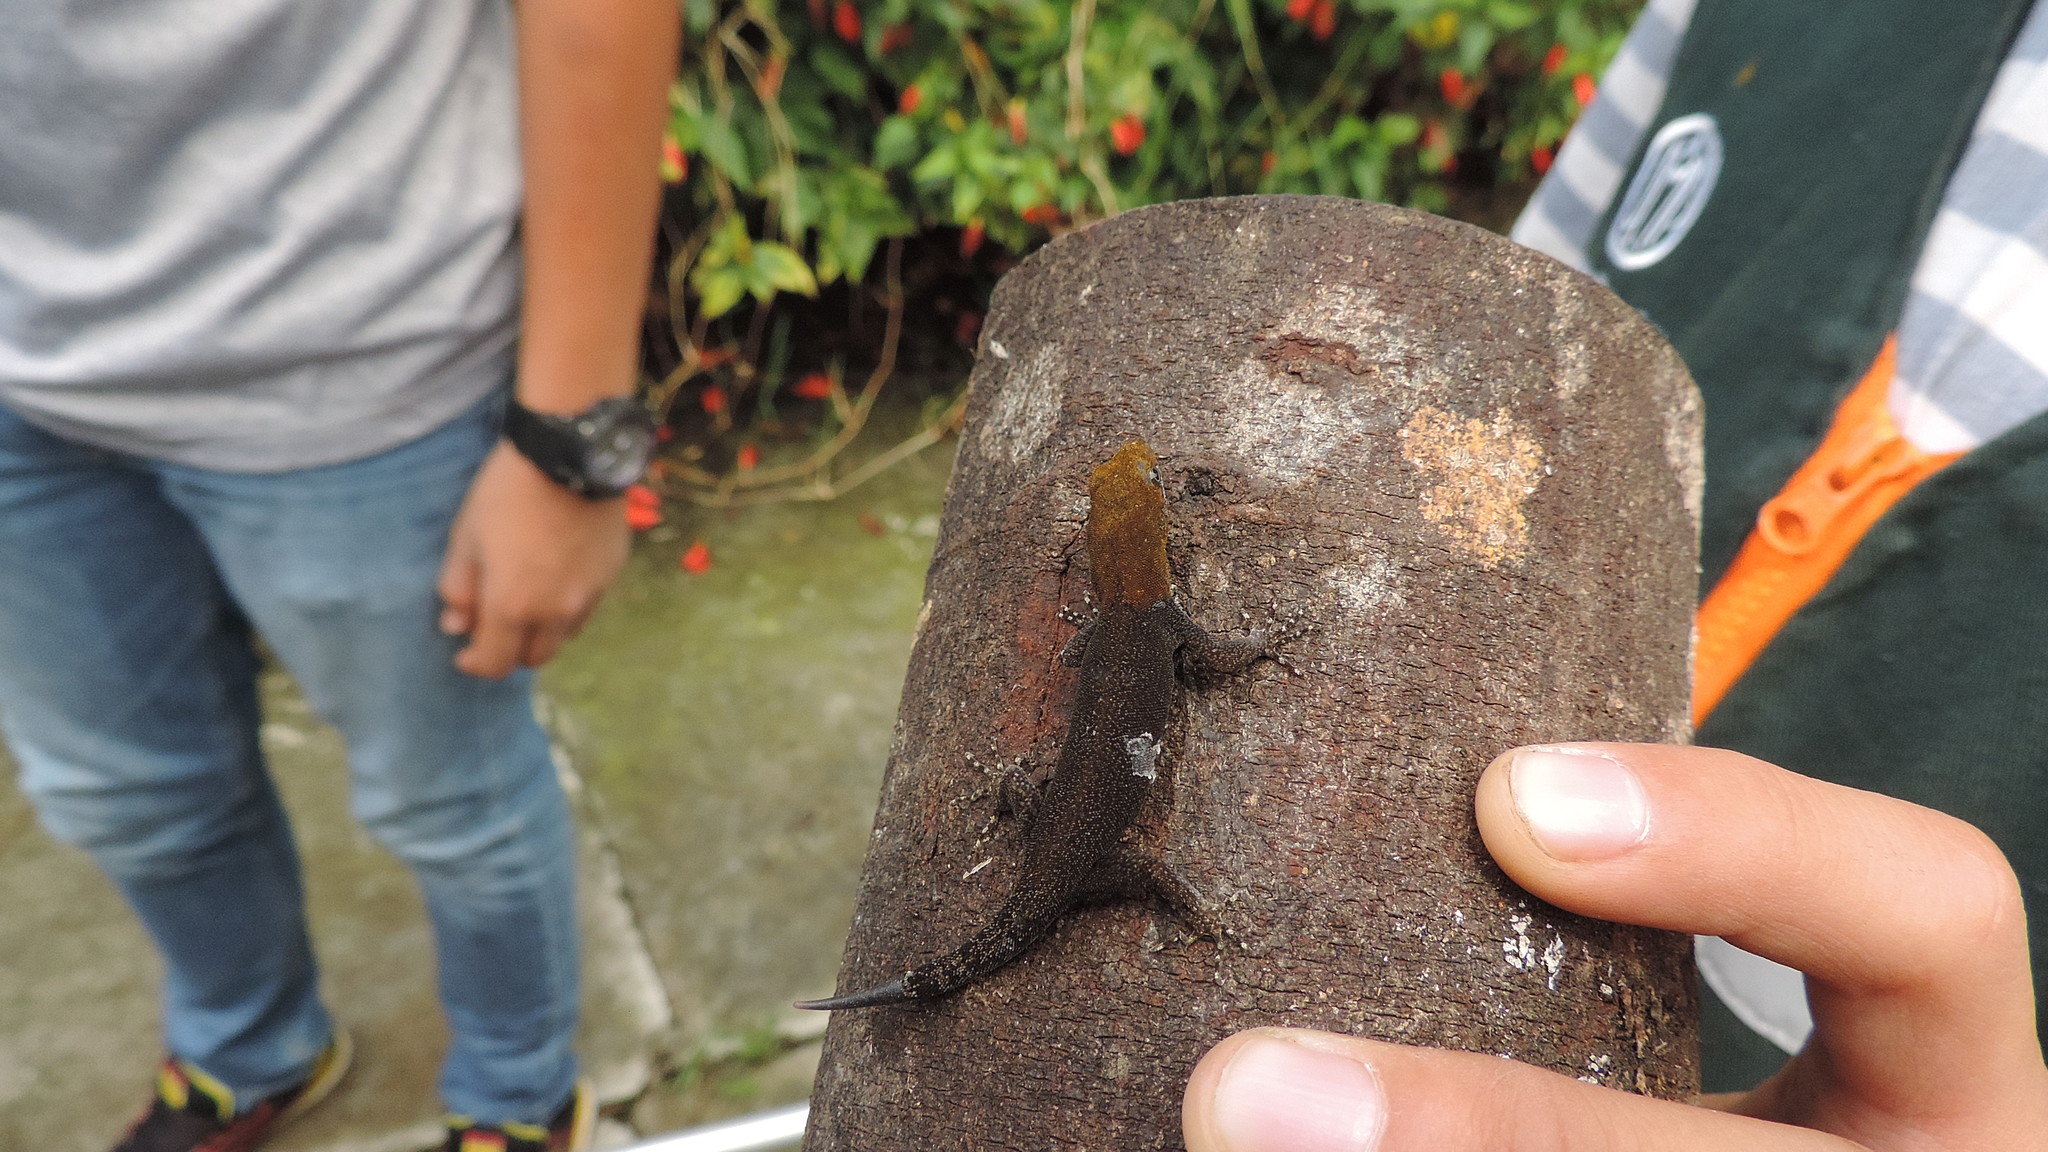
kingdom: Animalia
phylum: Chordata
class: Squamata
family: Sphaerodactylidae
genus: Gonatodes
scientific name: Gonatodes albogularis
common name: Yellow-headed gecko
